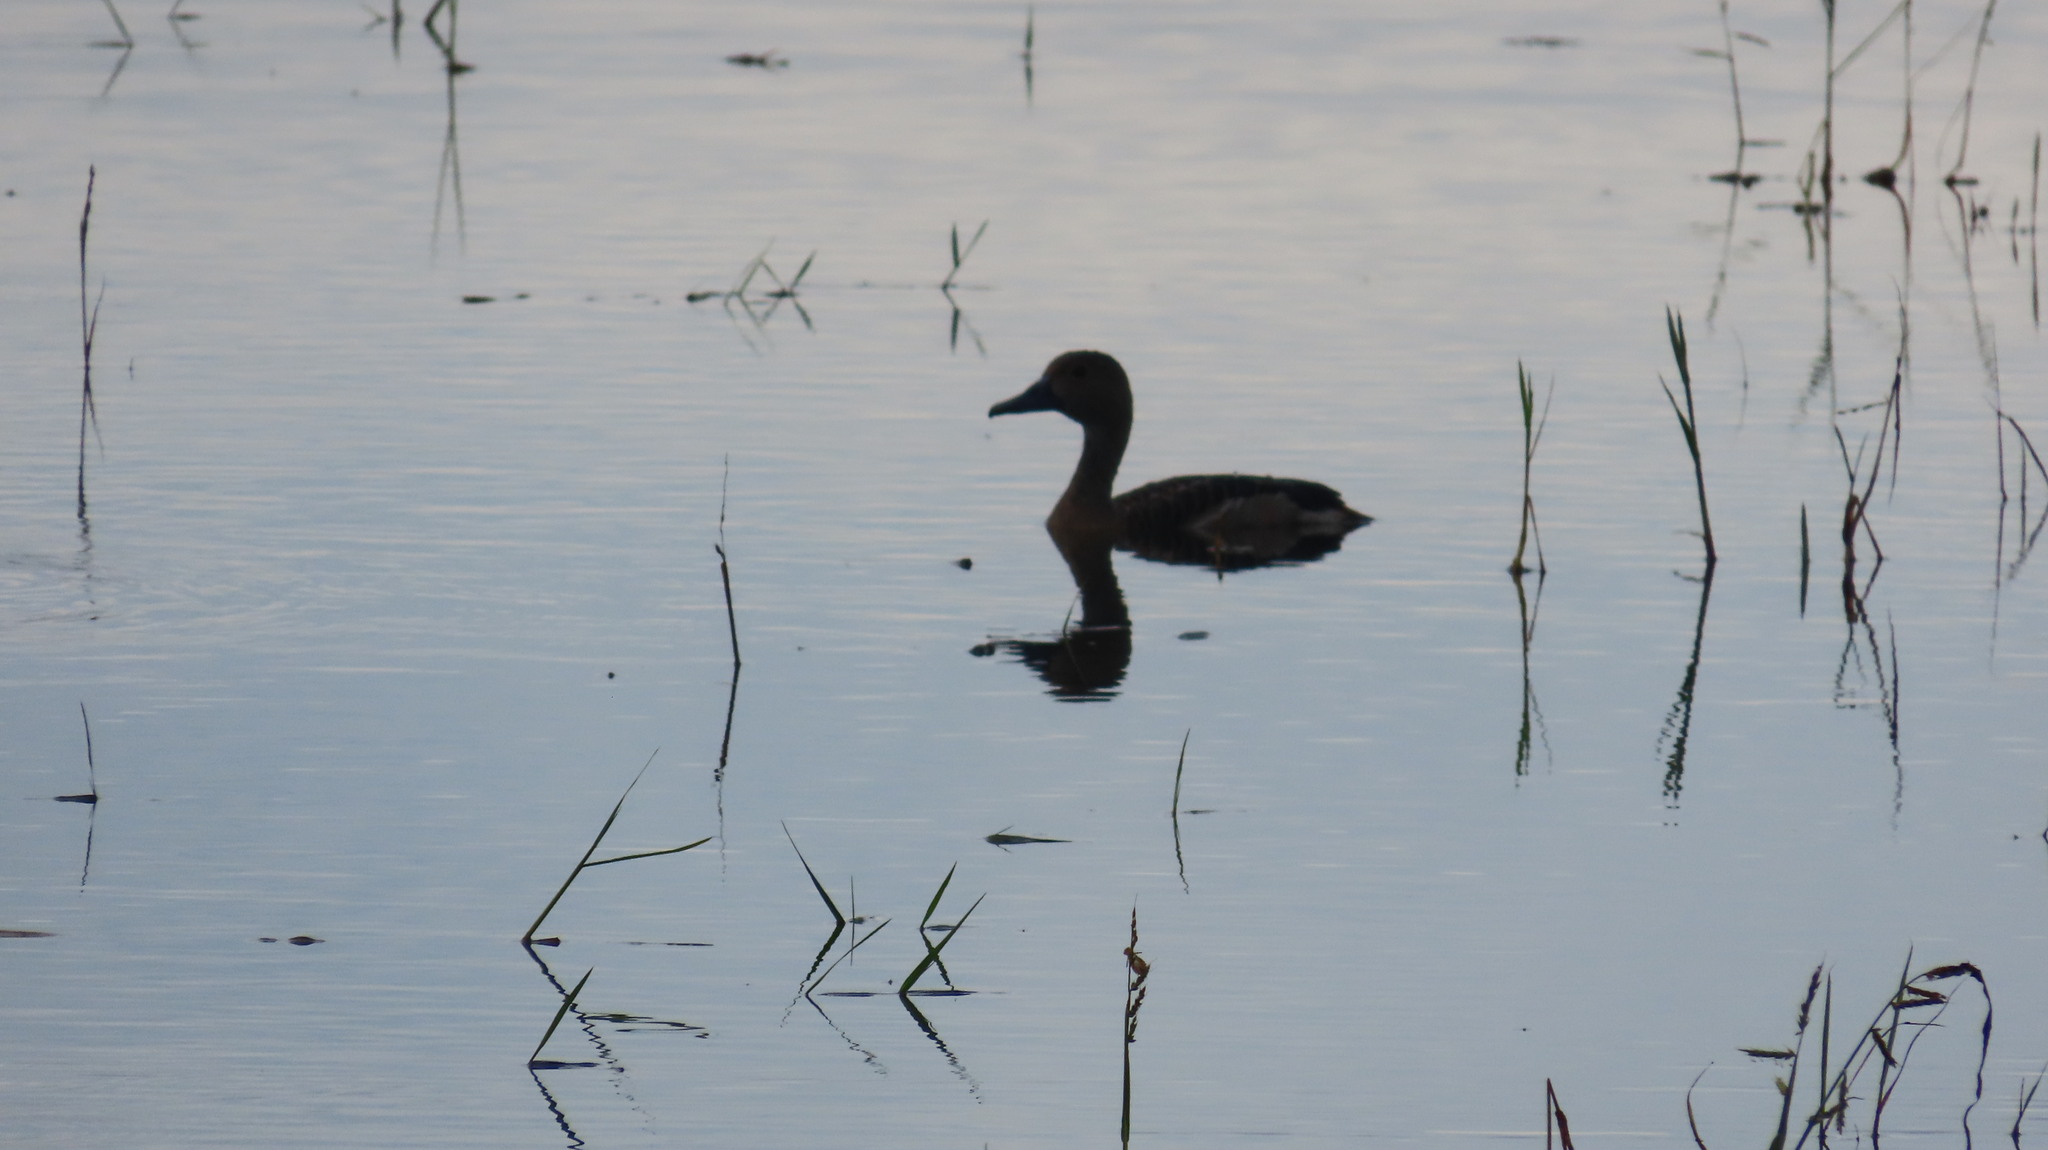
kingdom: Animalia
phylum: Chordata
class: Aves
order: Anseriformes
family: Anatidae
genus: Dendrocygna
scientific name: Dendrocygna javanica
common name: Lesser whistling-duck
